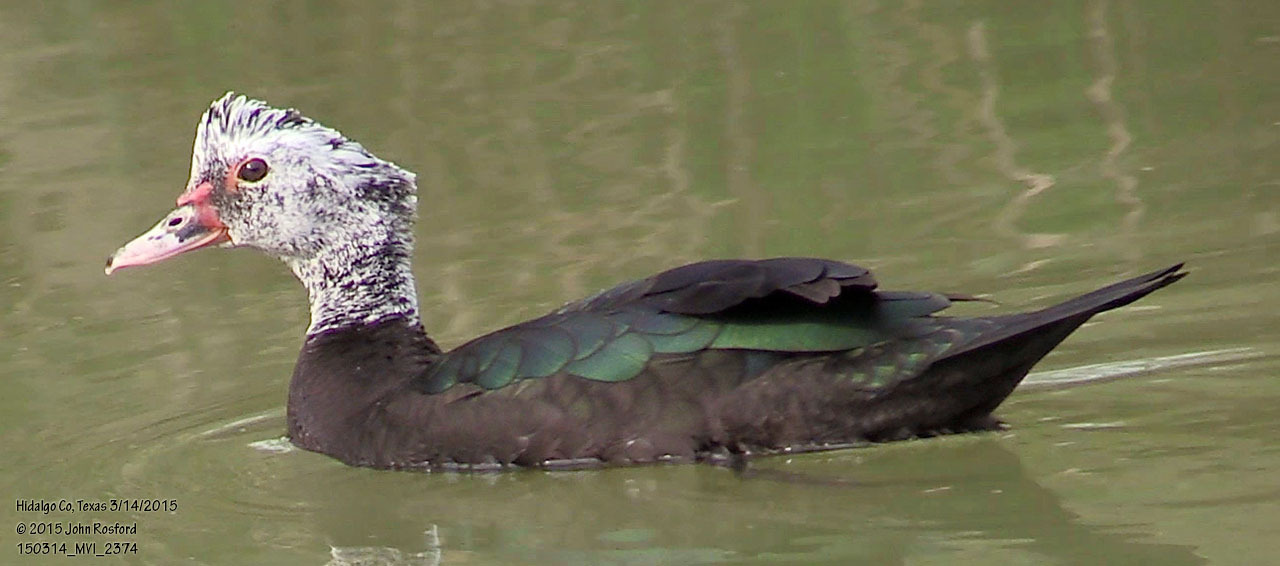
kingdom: Animalia
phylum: Chordata
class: Aves
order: Anseriformes
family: Anatidae
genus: Cairina
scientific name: Cairina moschata
